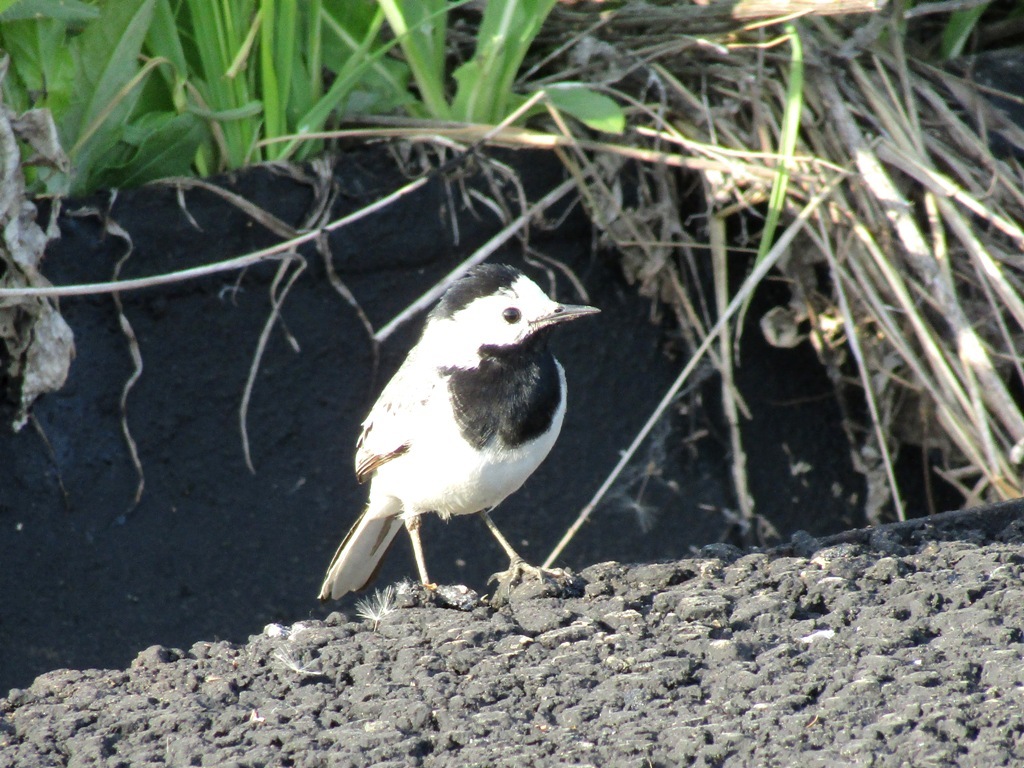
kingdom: Animalia
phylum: Chordata
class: Aves
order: Passeriformes
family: Motacillidae
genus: Motacilla
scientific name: Motacilla alba
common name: White wagtail
